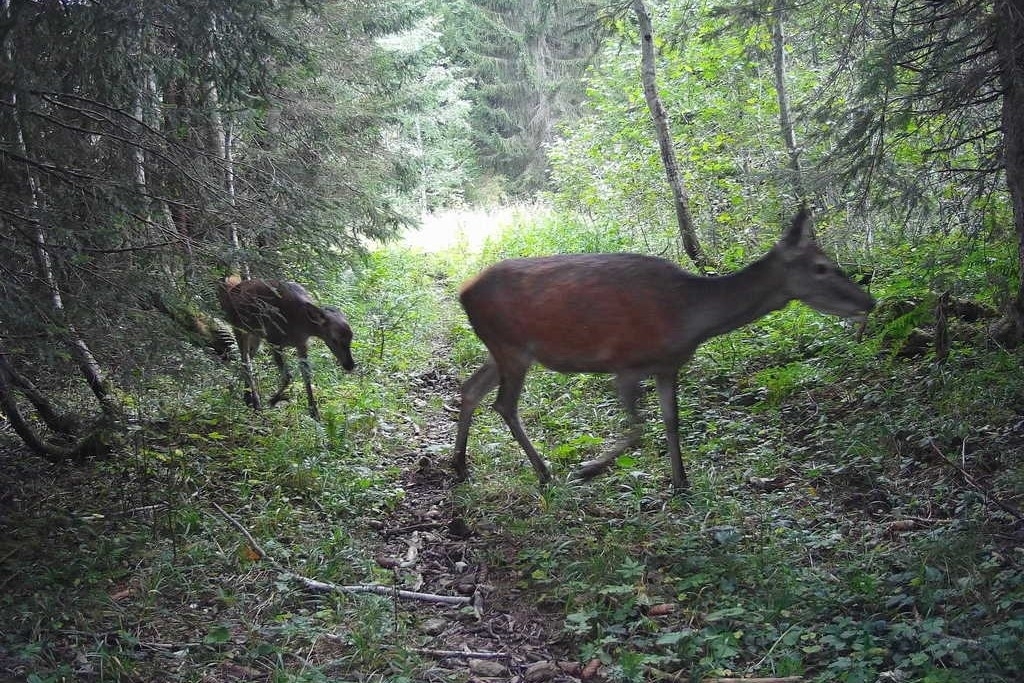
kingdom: Animalia
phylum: Chordata
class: Mammalia
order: Artiodactyla
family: Cervidae
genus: Cervus
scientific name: Cervus elaphus
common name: Red deer
